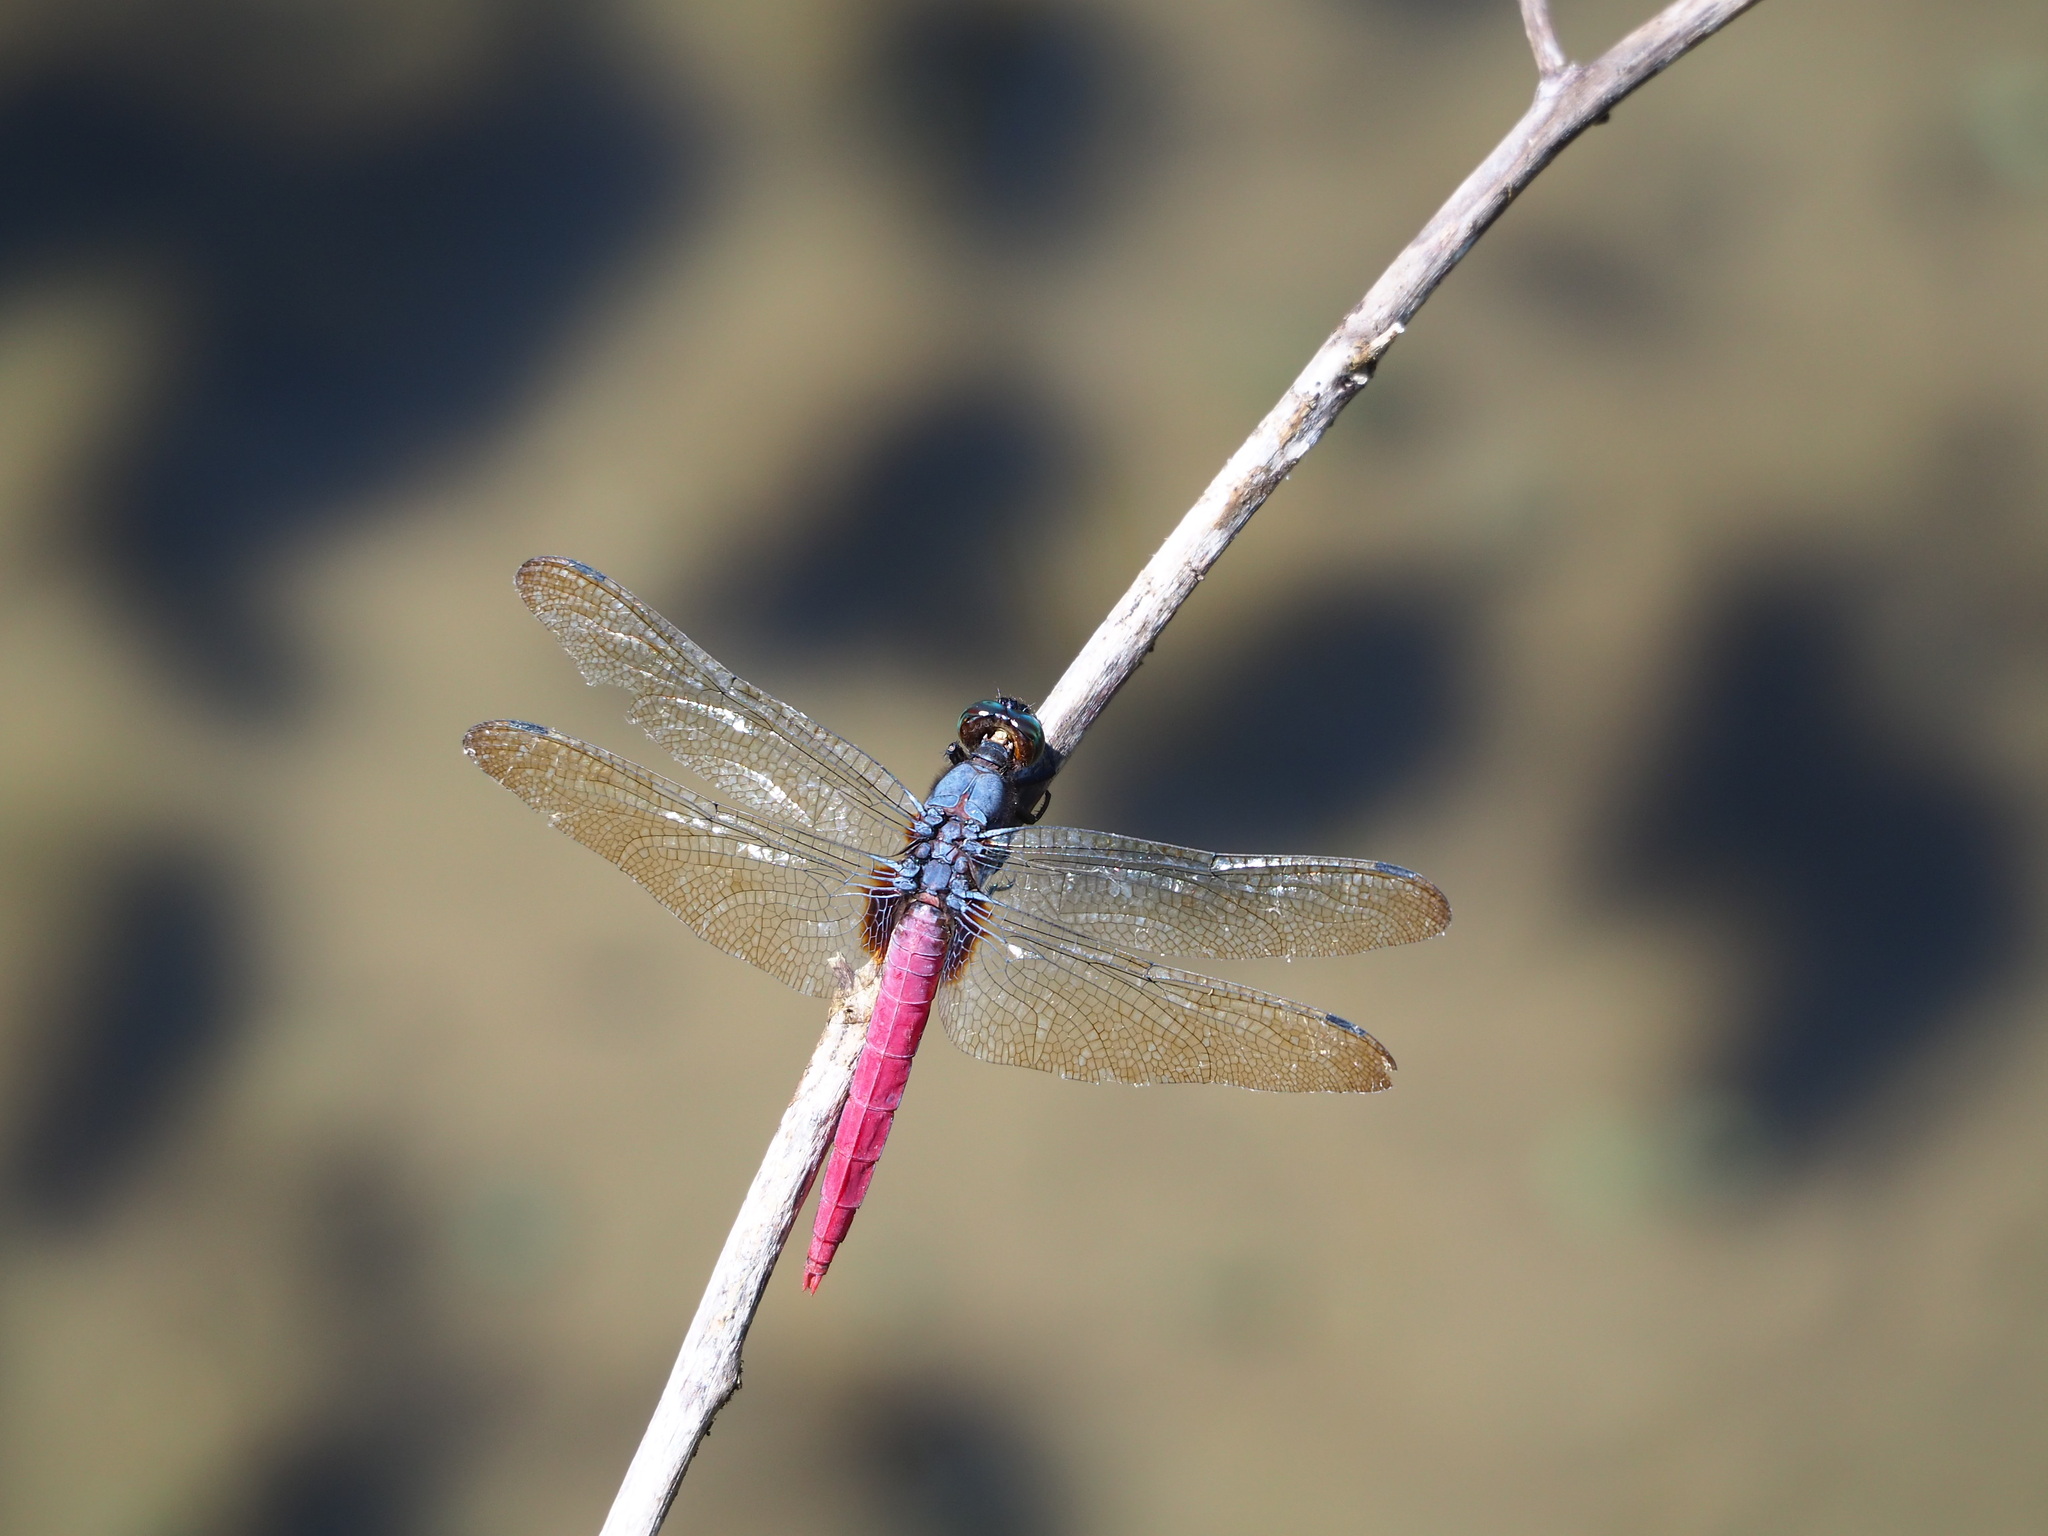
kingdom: Animalia
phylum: Arthropoda
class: Insecta
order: Odonata
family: Libellulidae
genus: Orthetrum
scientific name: Orthetrum pruinosum
